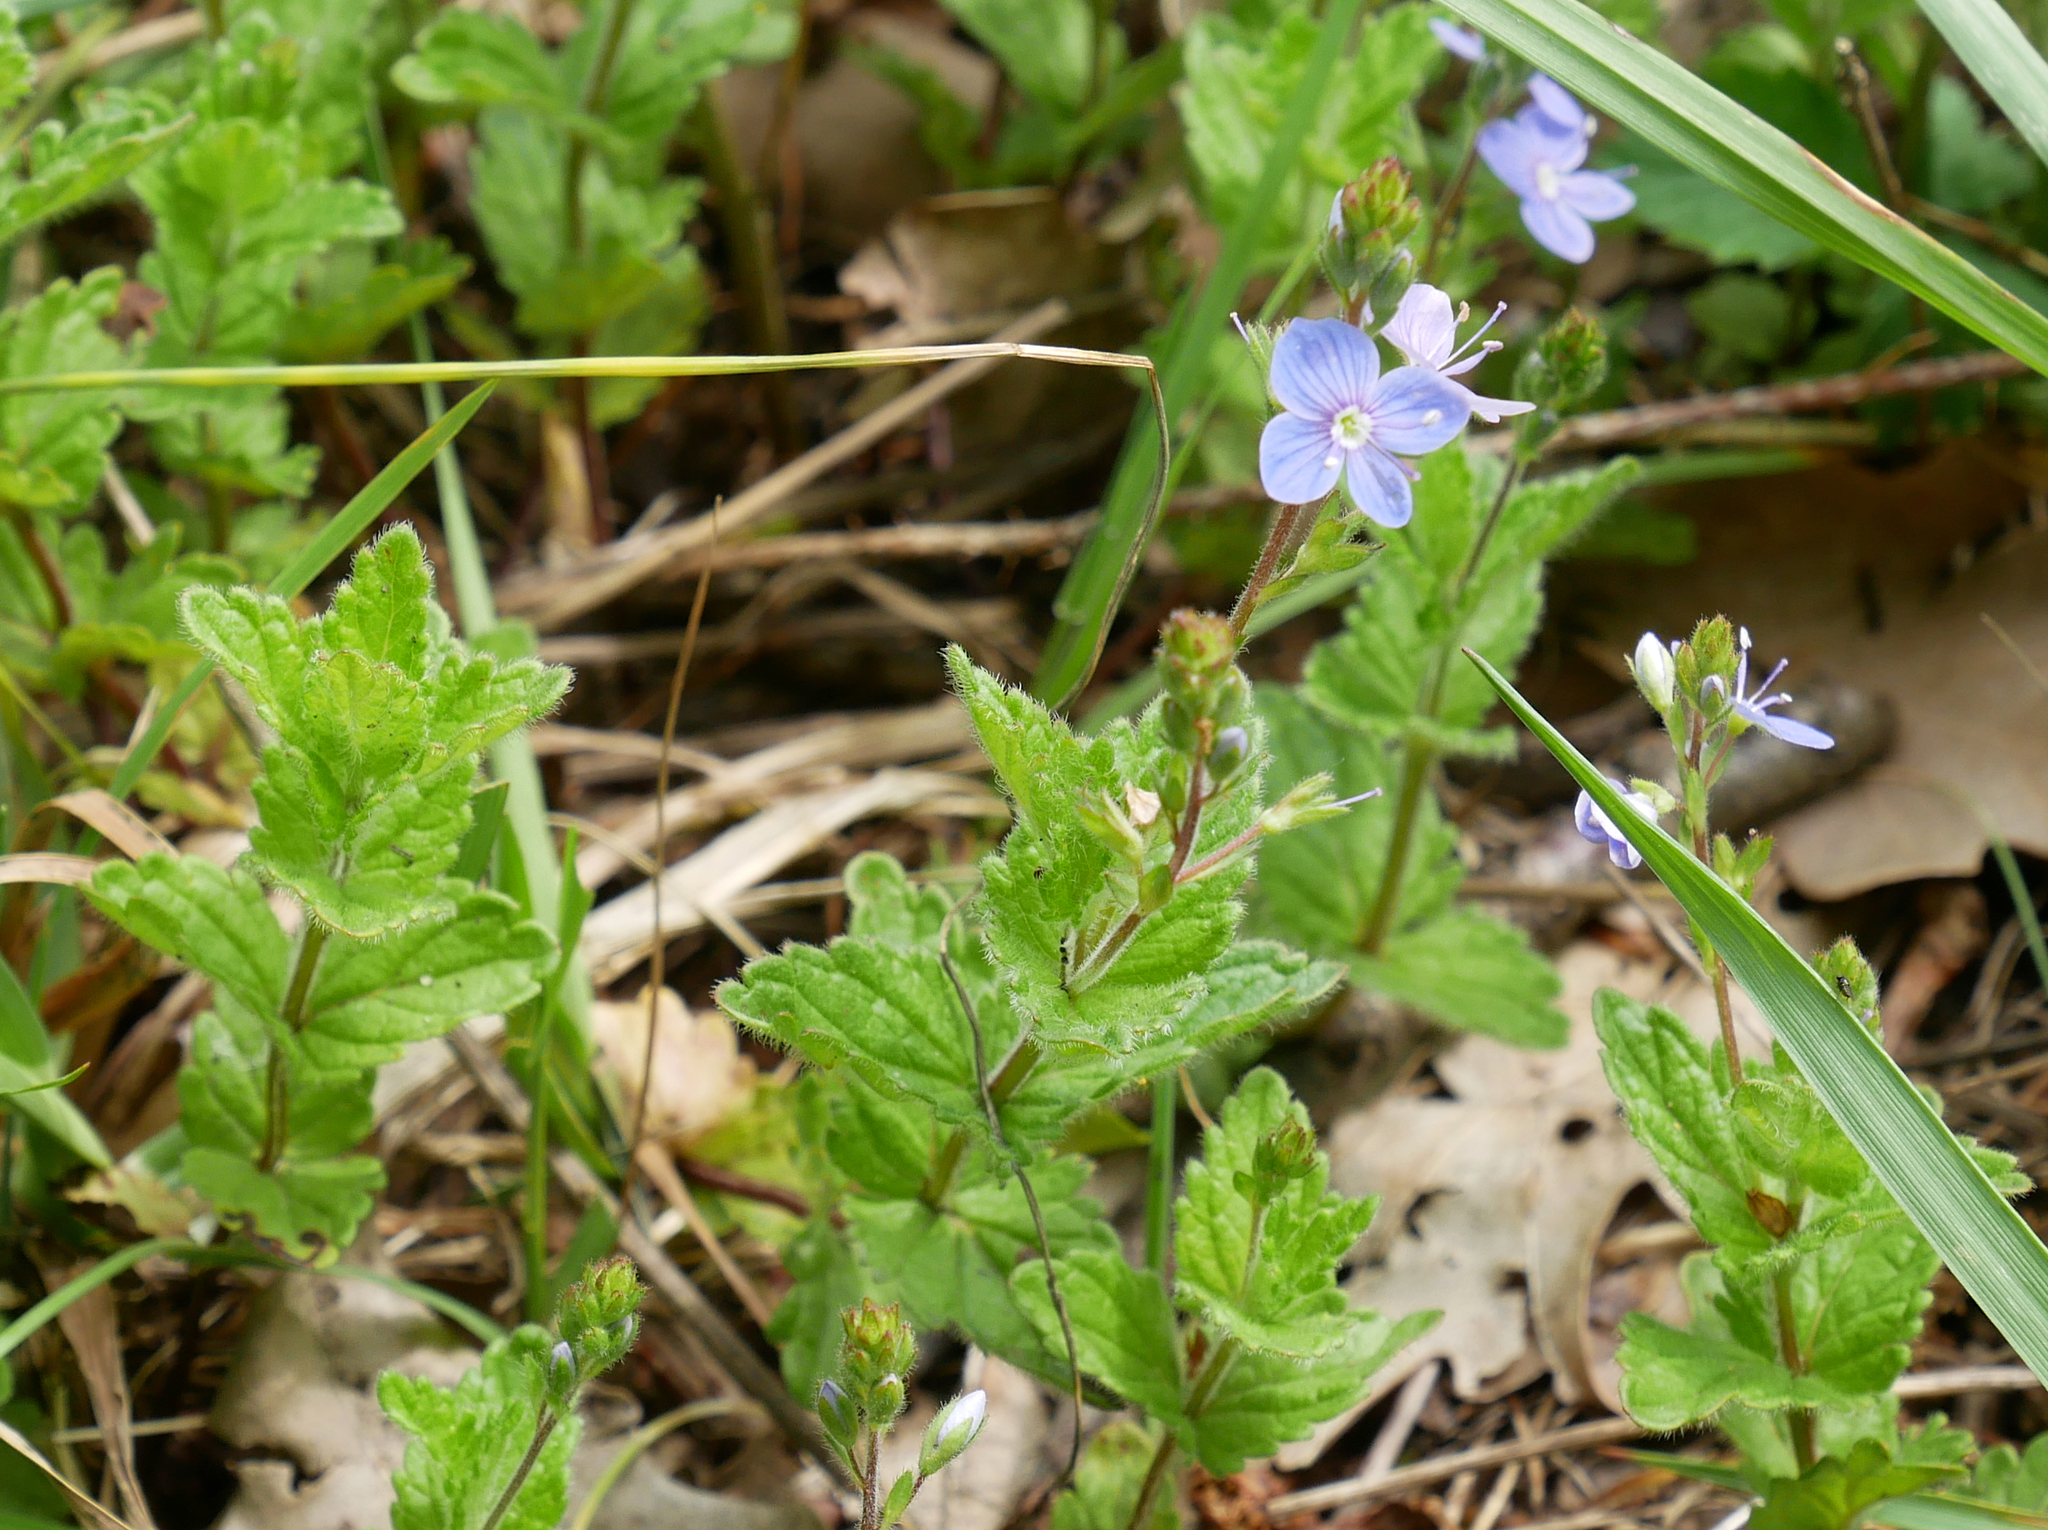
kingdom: Plantae
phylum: Tracheophyta
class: Magnoliopsida
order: Lamiales
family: Plantaginaceae
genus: Veronica
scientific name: Veronica chamaedrys
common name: Germander speedwell
